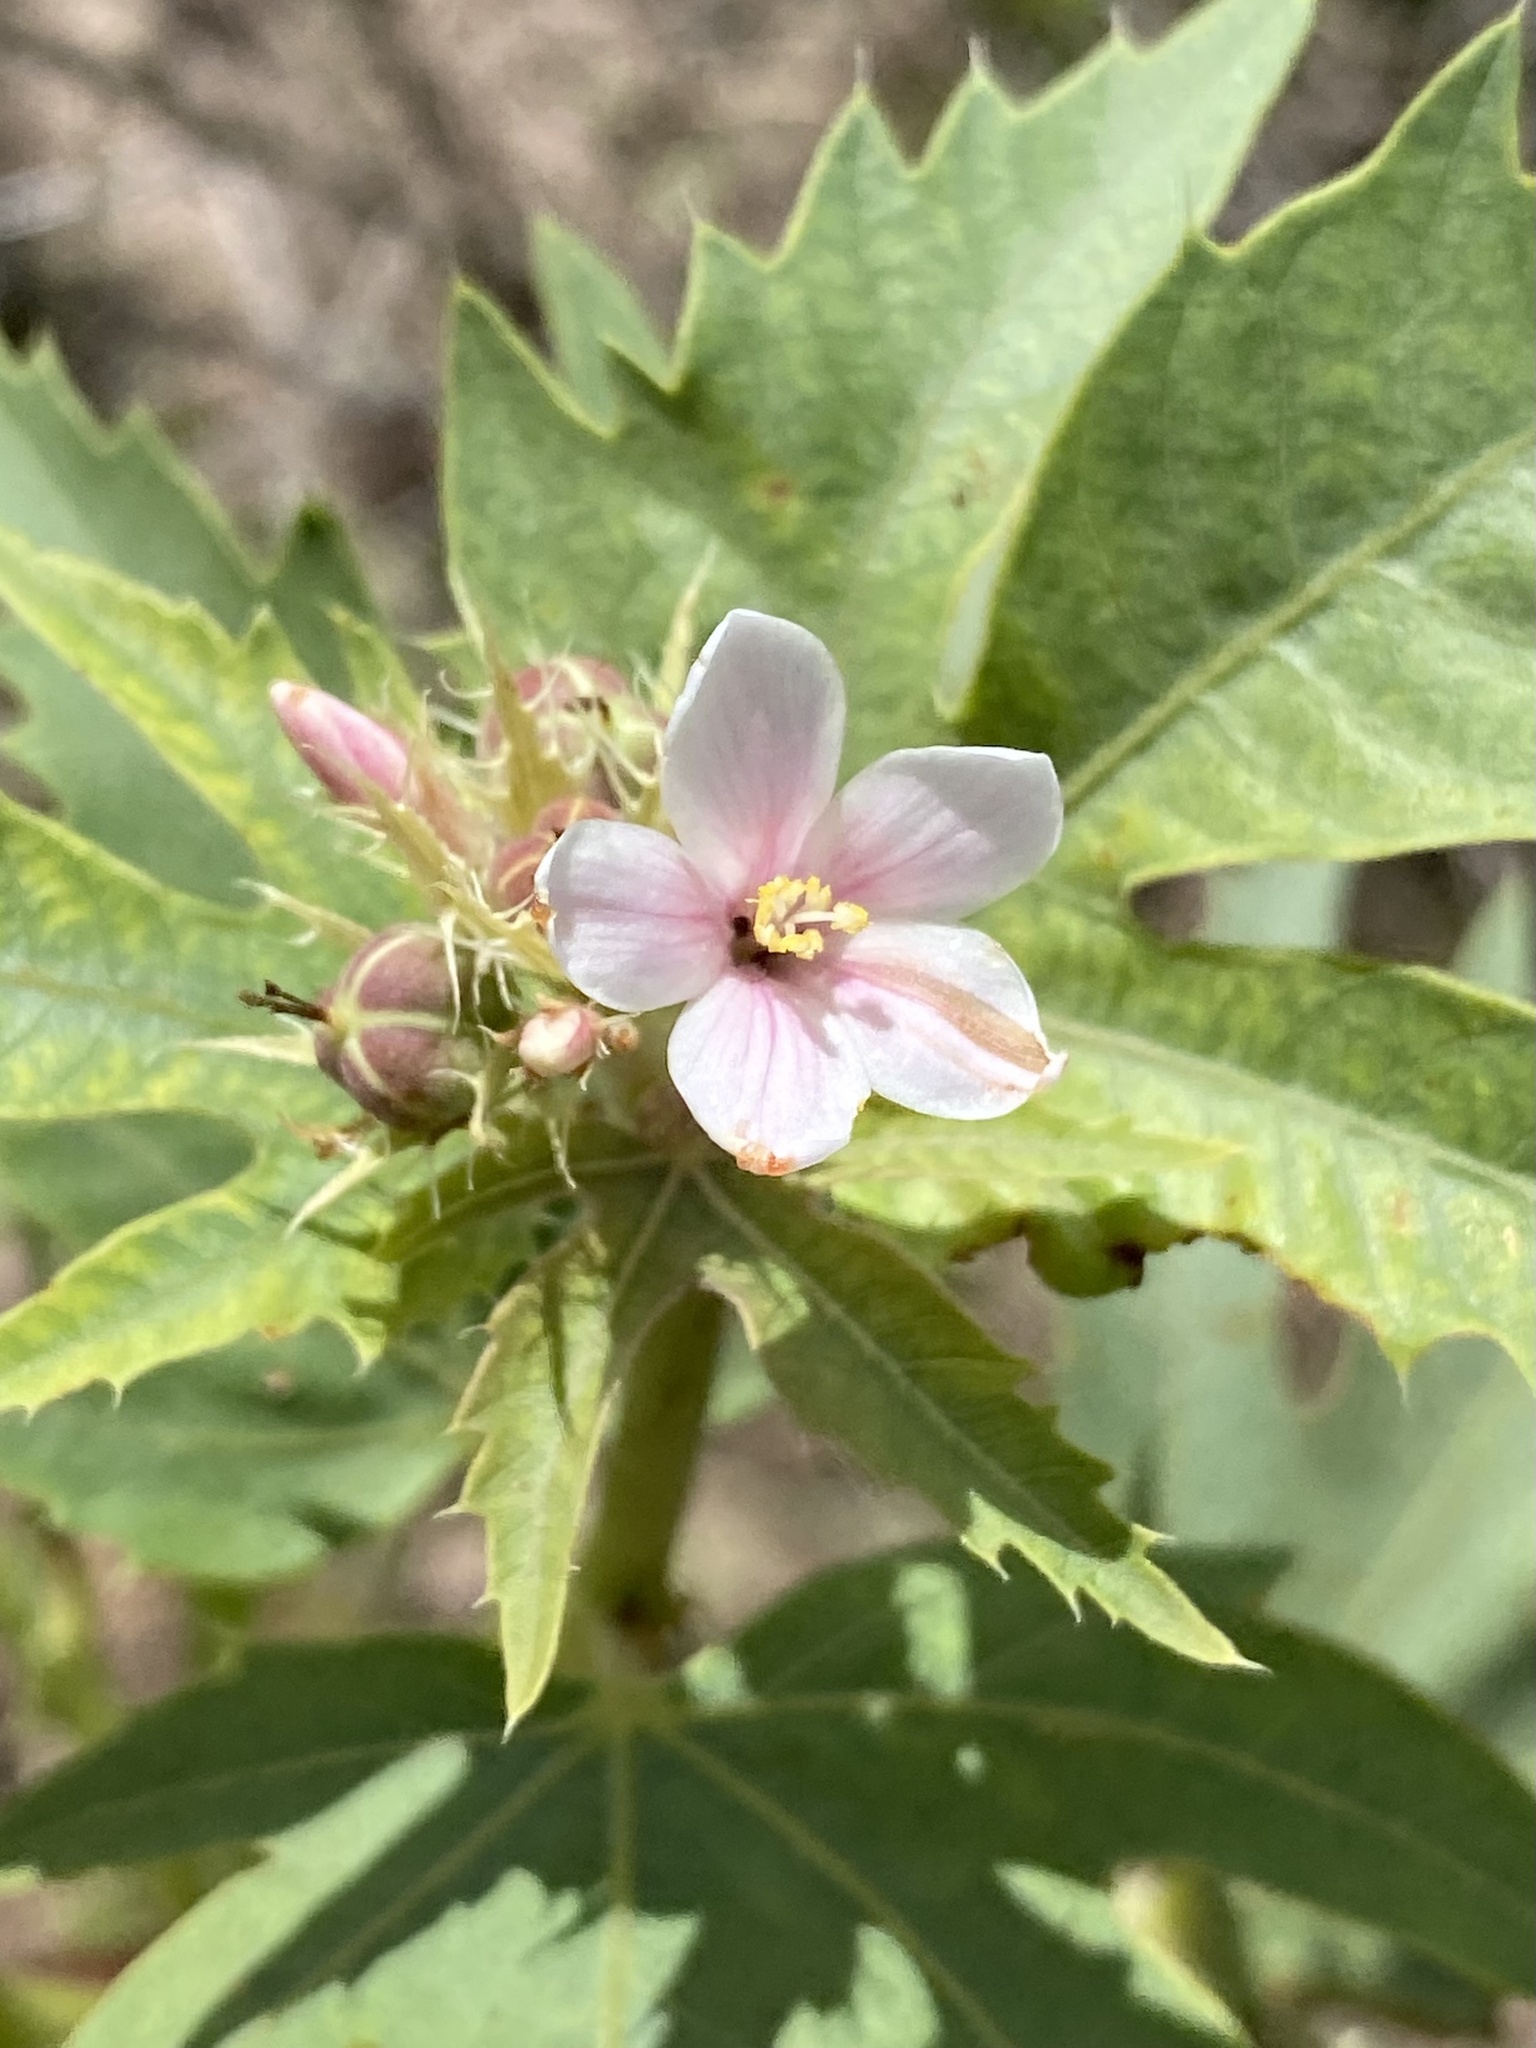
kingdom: Plantae
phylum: Tracheophyta
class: Magnoliopsida
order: Malpighiales
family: Euphorbiaceae
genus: Jatropha
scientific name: Jatropha macrorhiza
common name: Ragged nettlespurge
